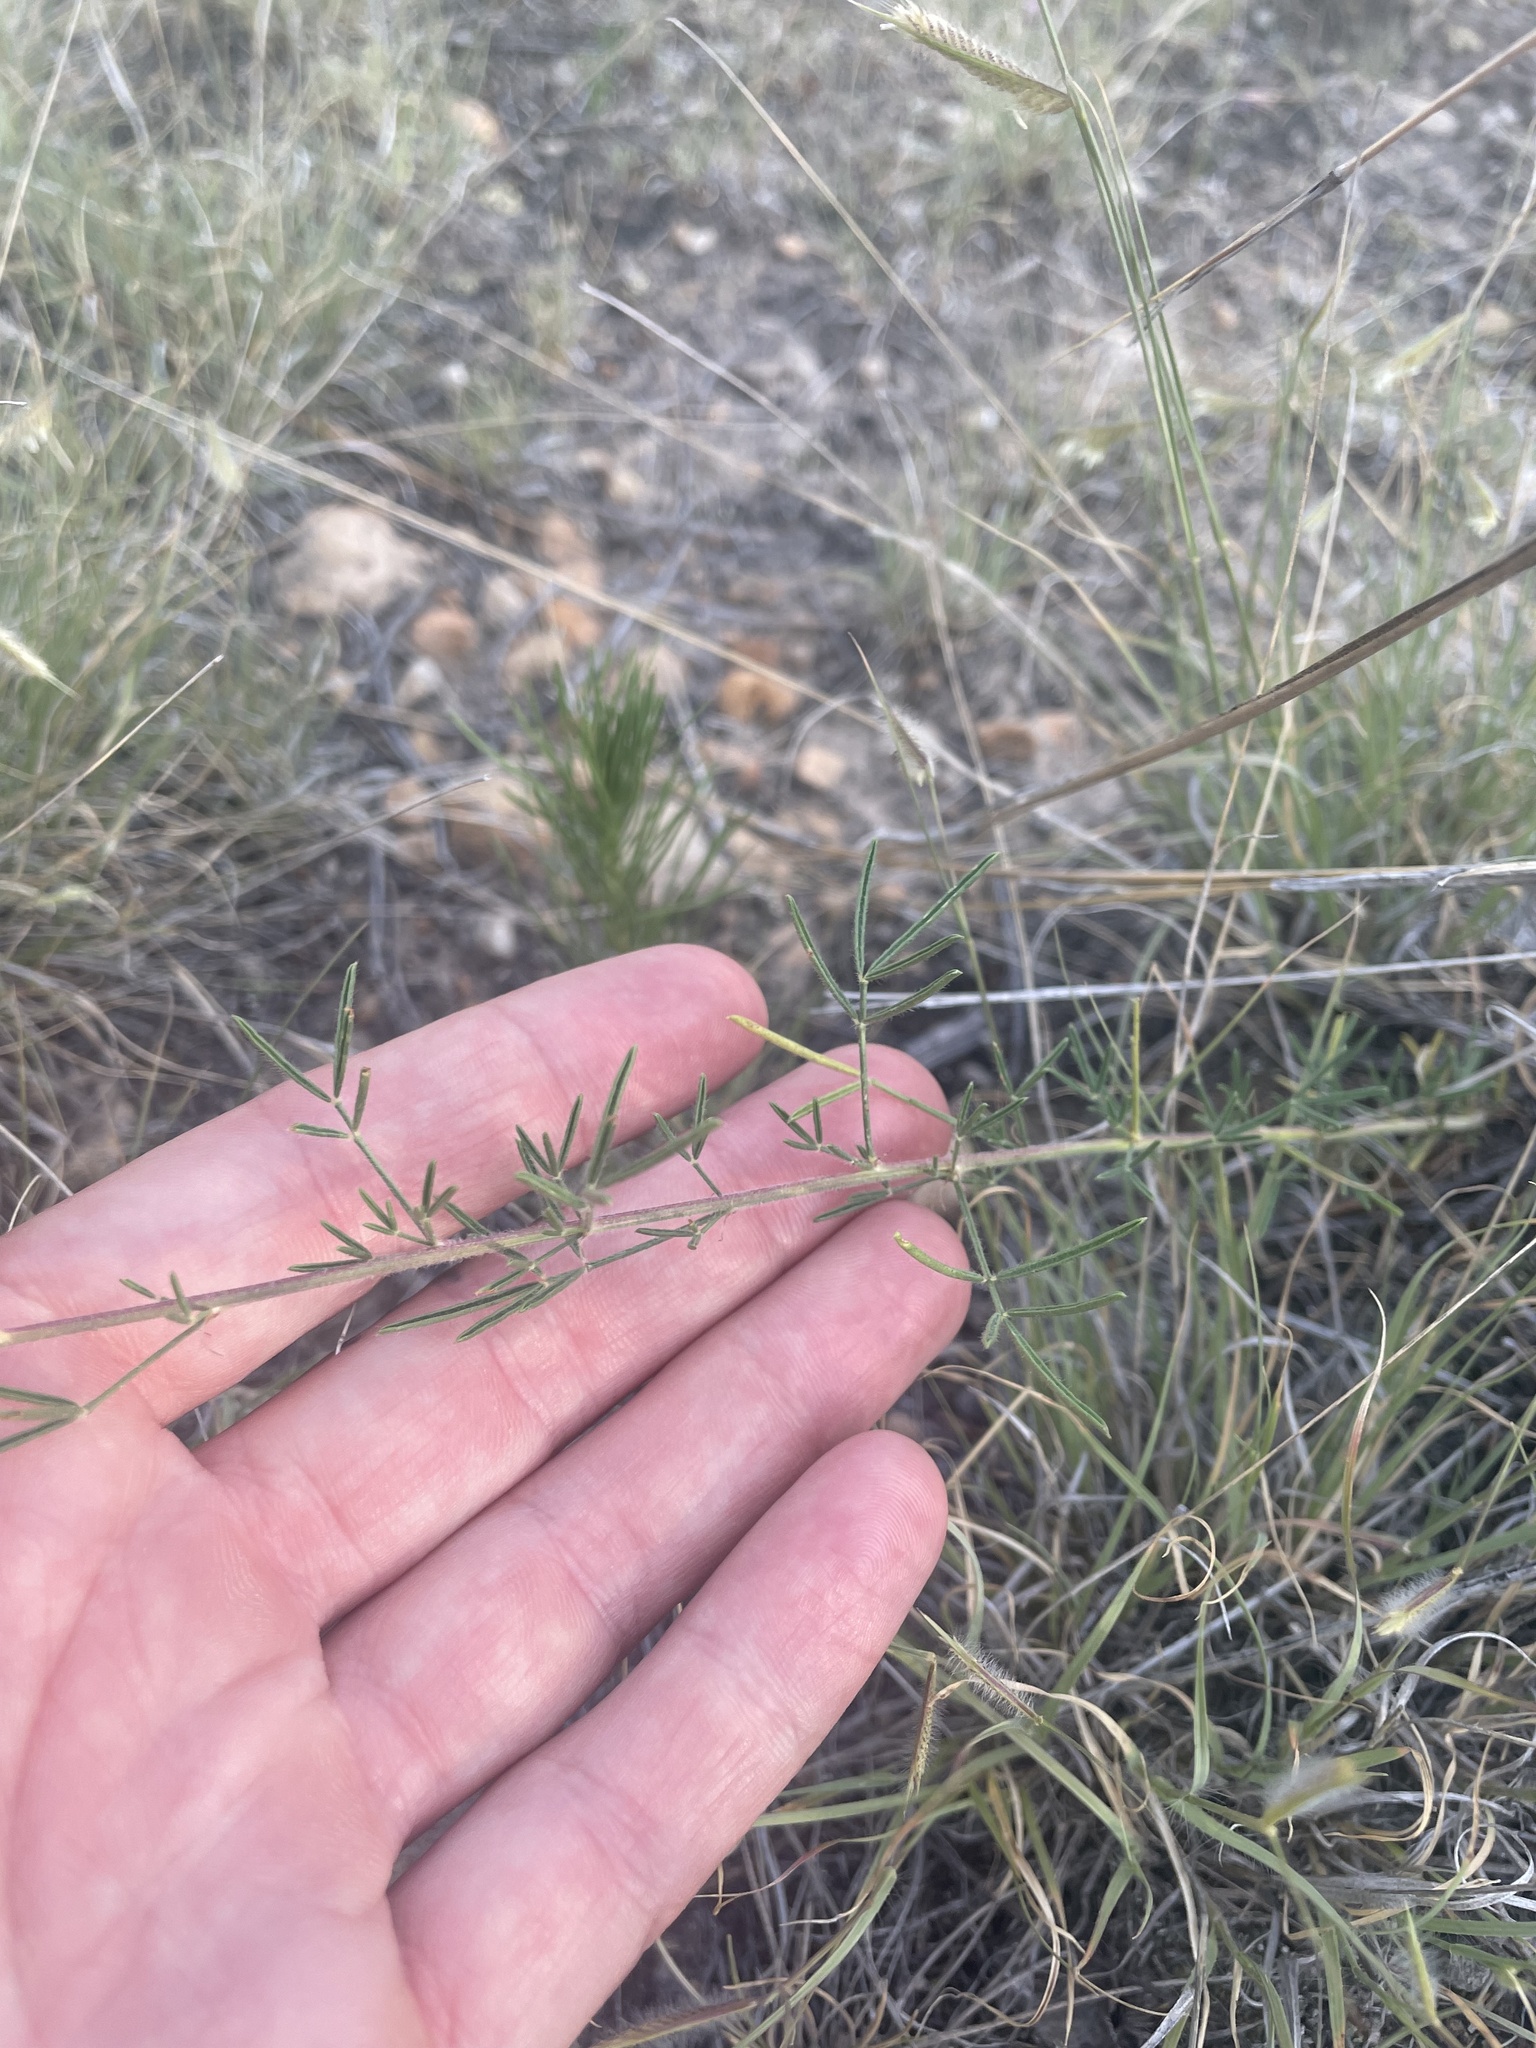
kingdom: Plantae
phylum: Tracheophyta
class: Magnoliopsida
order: Fabales
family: Fabaceae
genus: Dalea
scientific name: Dalea purpurea
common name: Purple prairie-clover
